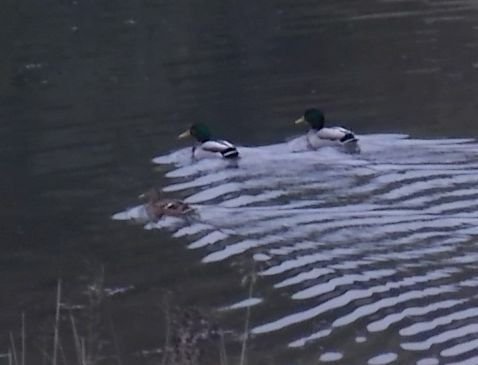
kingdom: Animalia
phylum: Chordata
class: Aves
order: Anseriformes
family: Anatidae
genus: Anas
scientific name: Anas platyrhynchos
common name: Mallard
